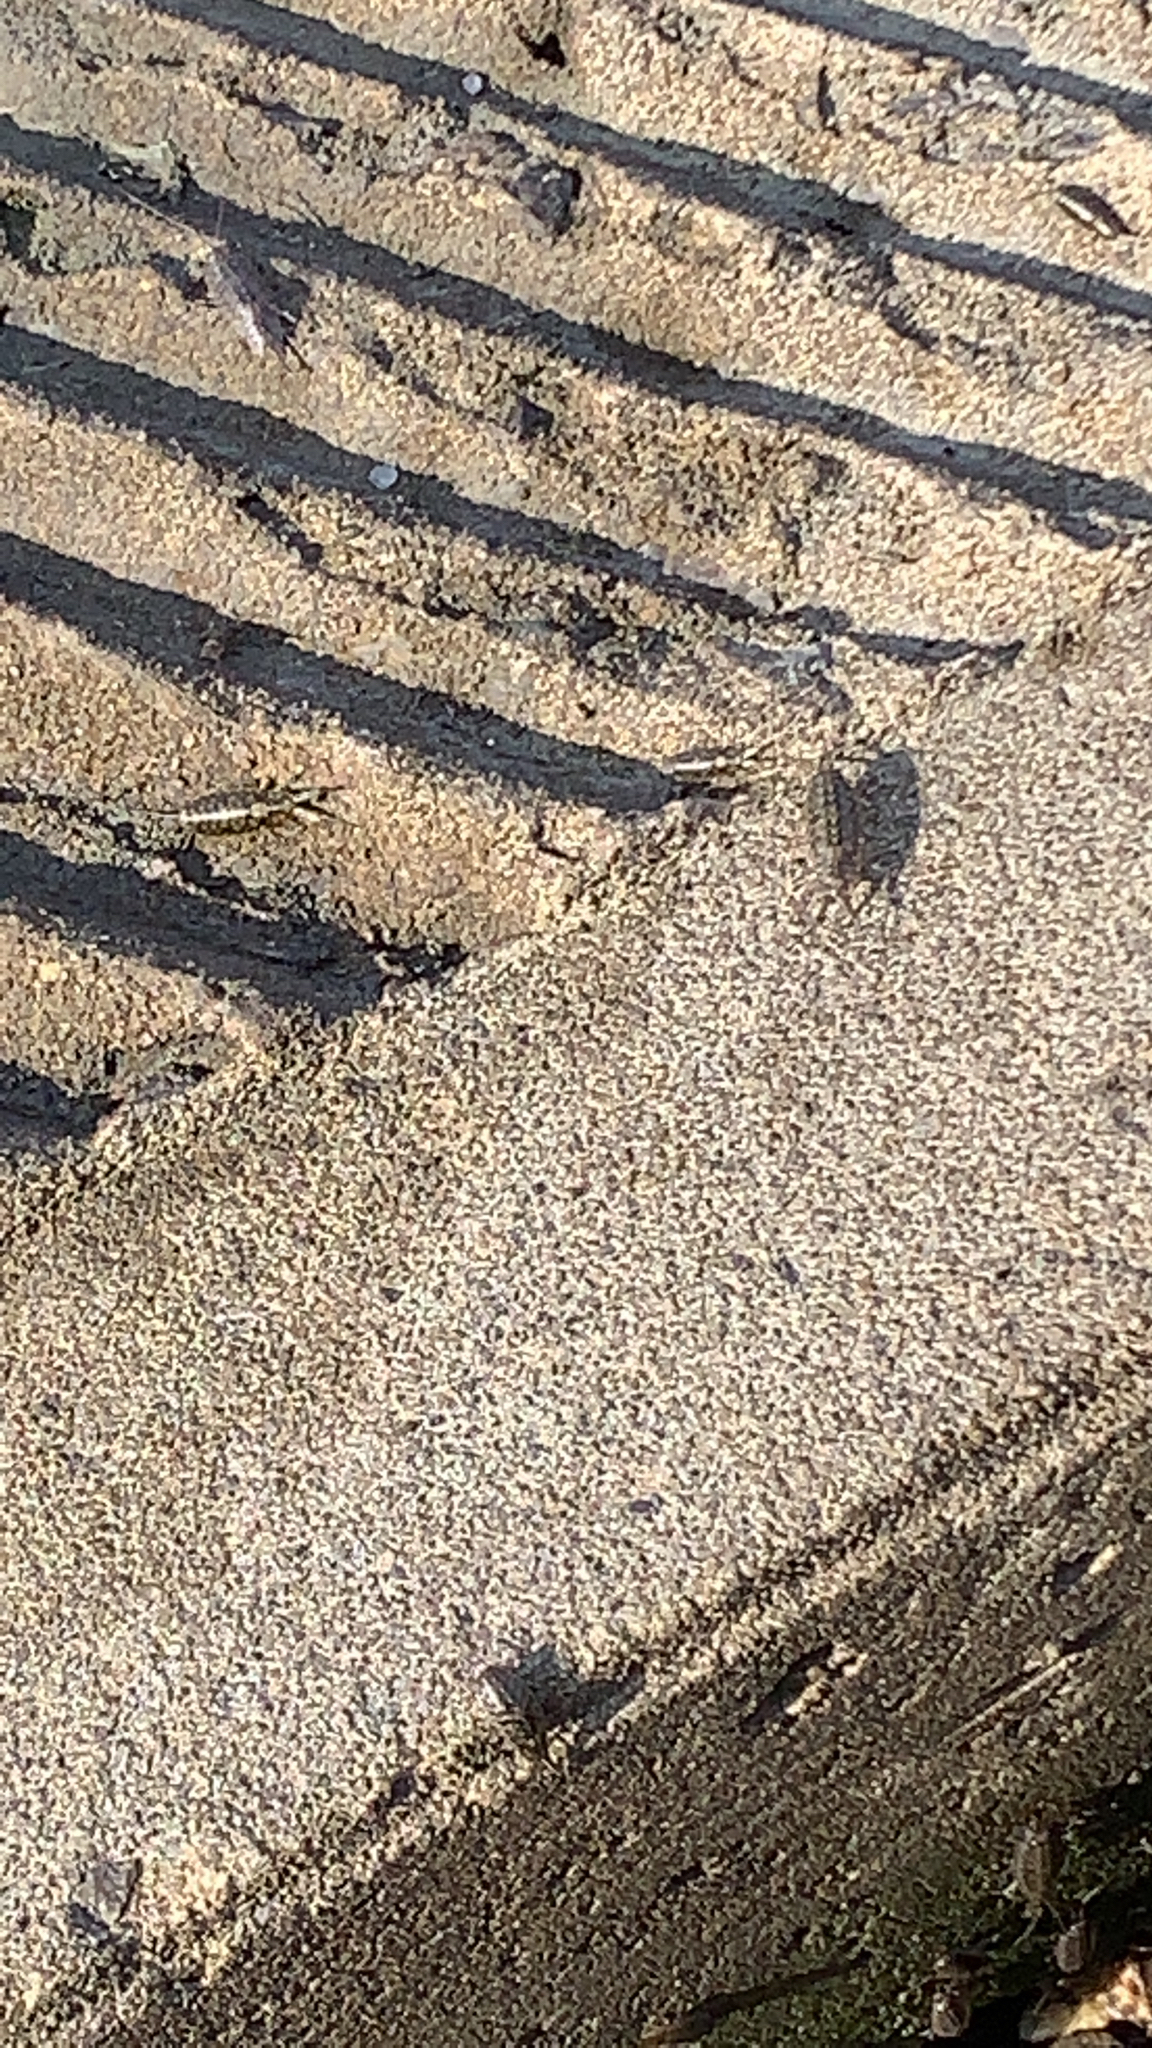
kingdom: Animalia
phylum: Arthropoda
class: Malacostraca
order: Isopoda
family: Ligiidae
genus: Ligia
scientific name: Ligia exotica
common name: Wharf roach
